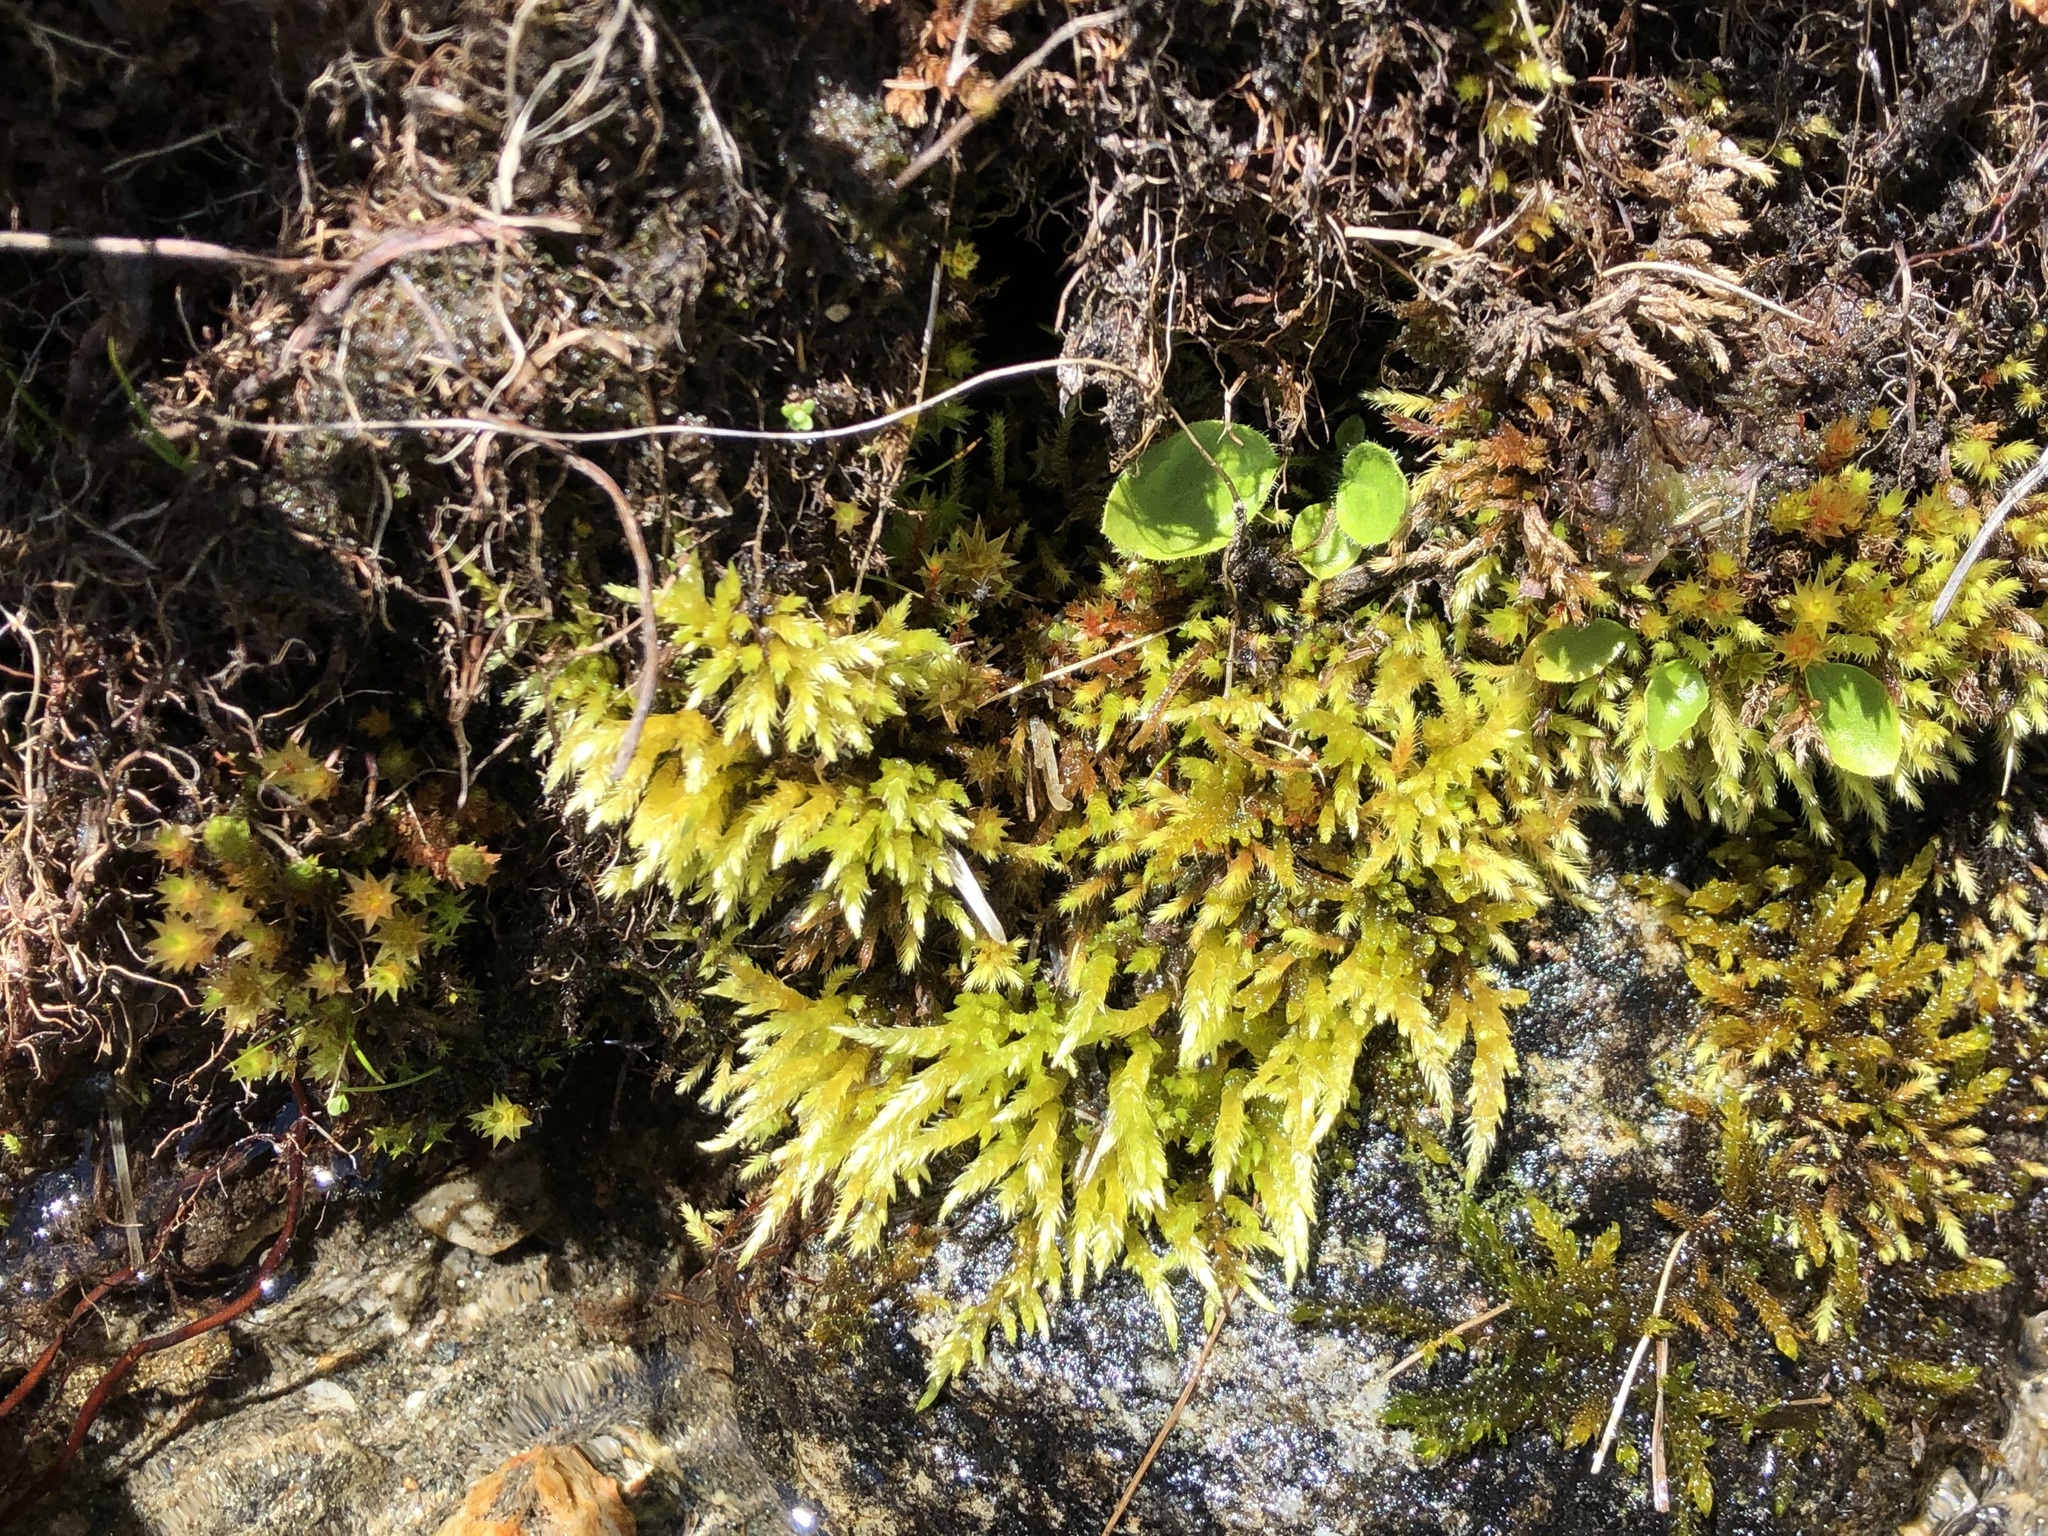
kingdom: Plantae
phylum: Bryophyta
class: Bryopsida
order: Hypnales
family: Brachytheciaceae
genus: Brachythecium
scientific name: Brachythecium rivulare
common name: River ragged moss
